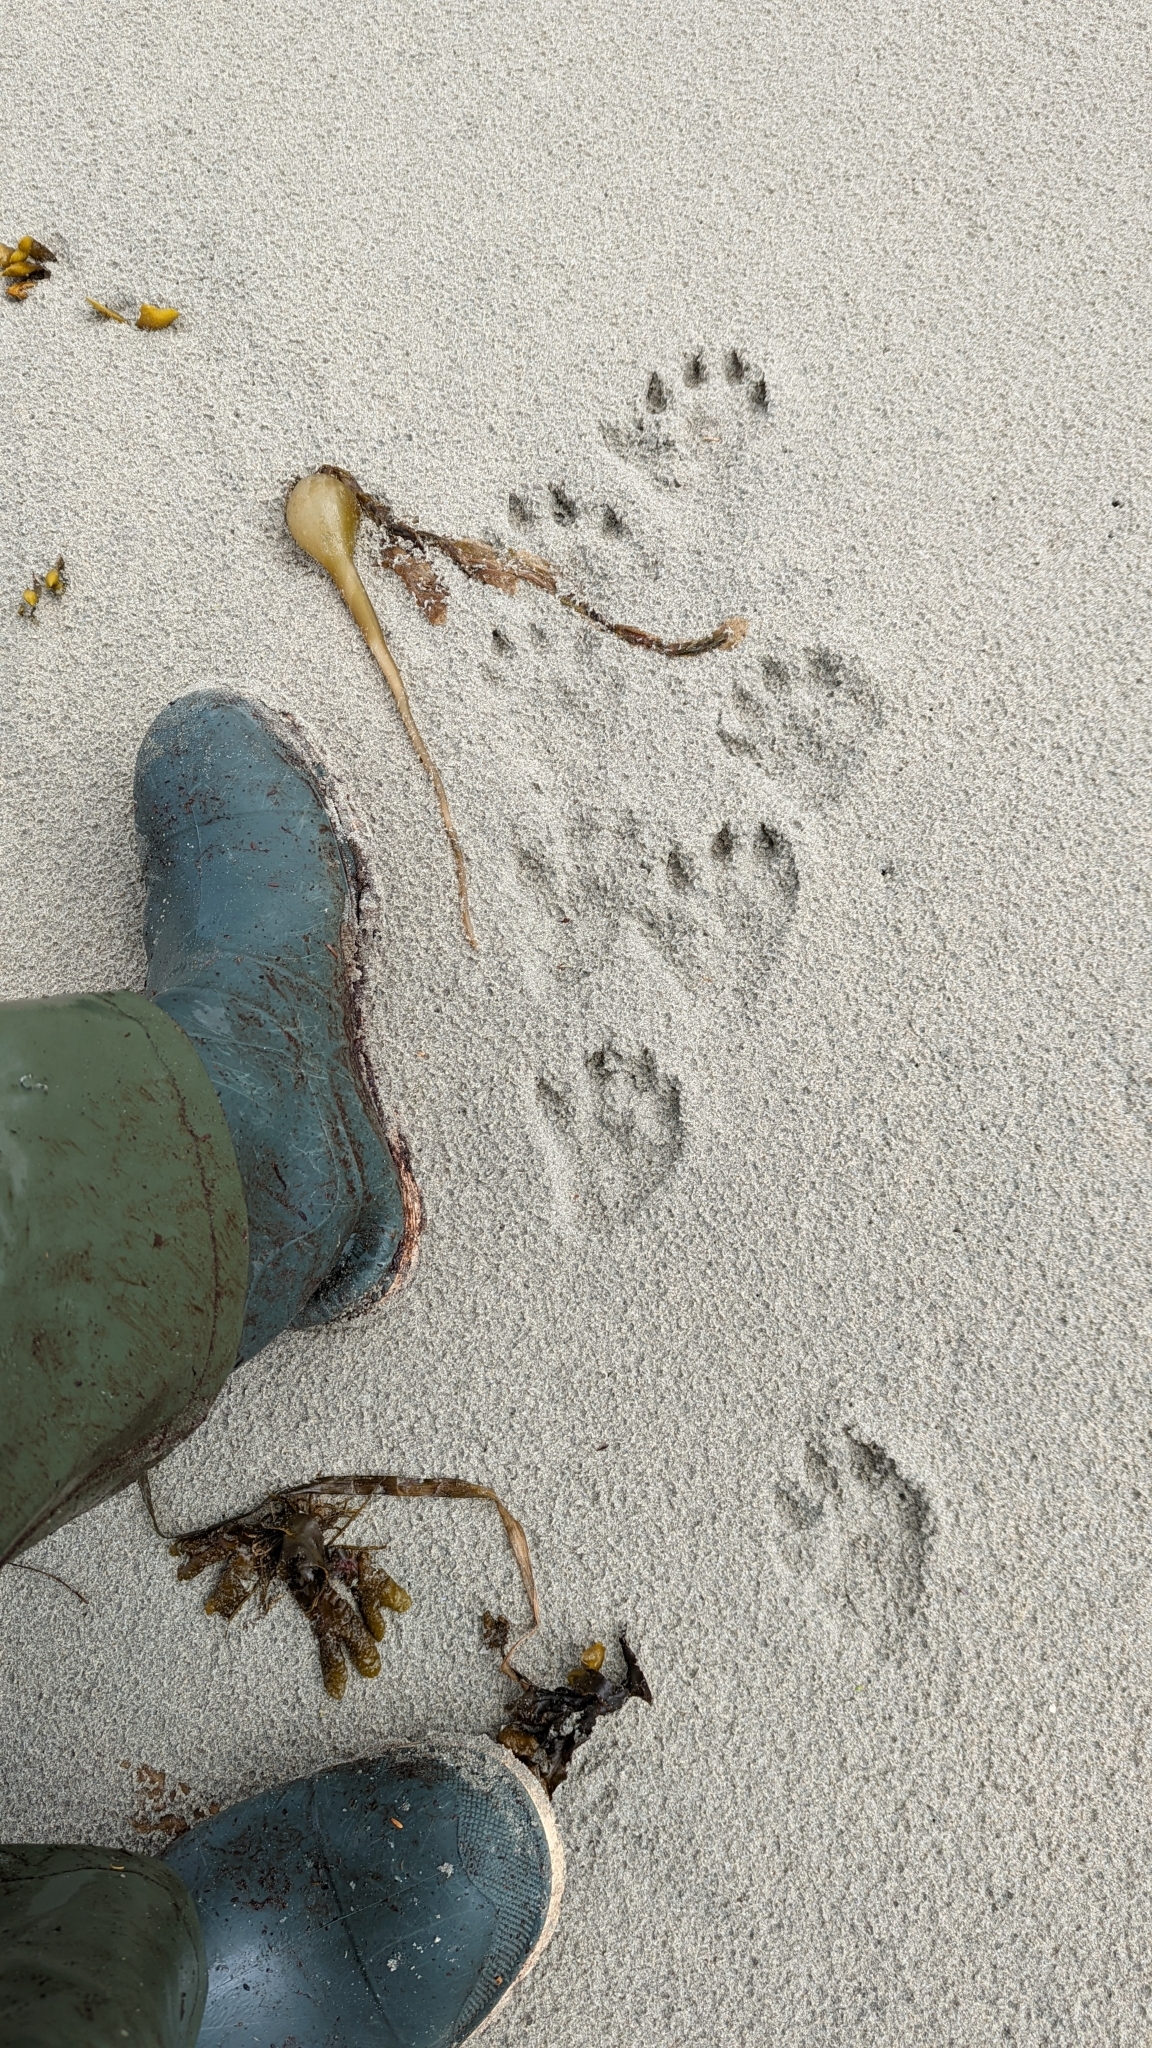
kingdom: Animalia
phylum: Chordata
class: Mammalia
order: Carnivora
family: Mustelidae
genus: Lontra
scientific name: Lontra canadensis
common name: North american river otter
